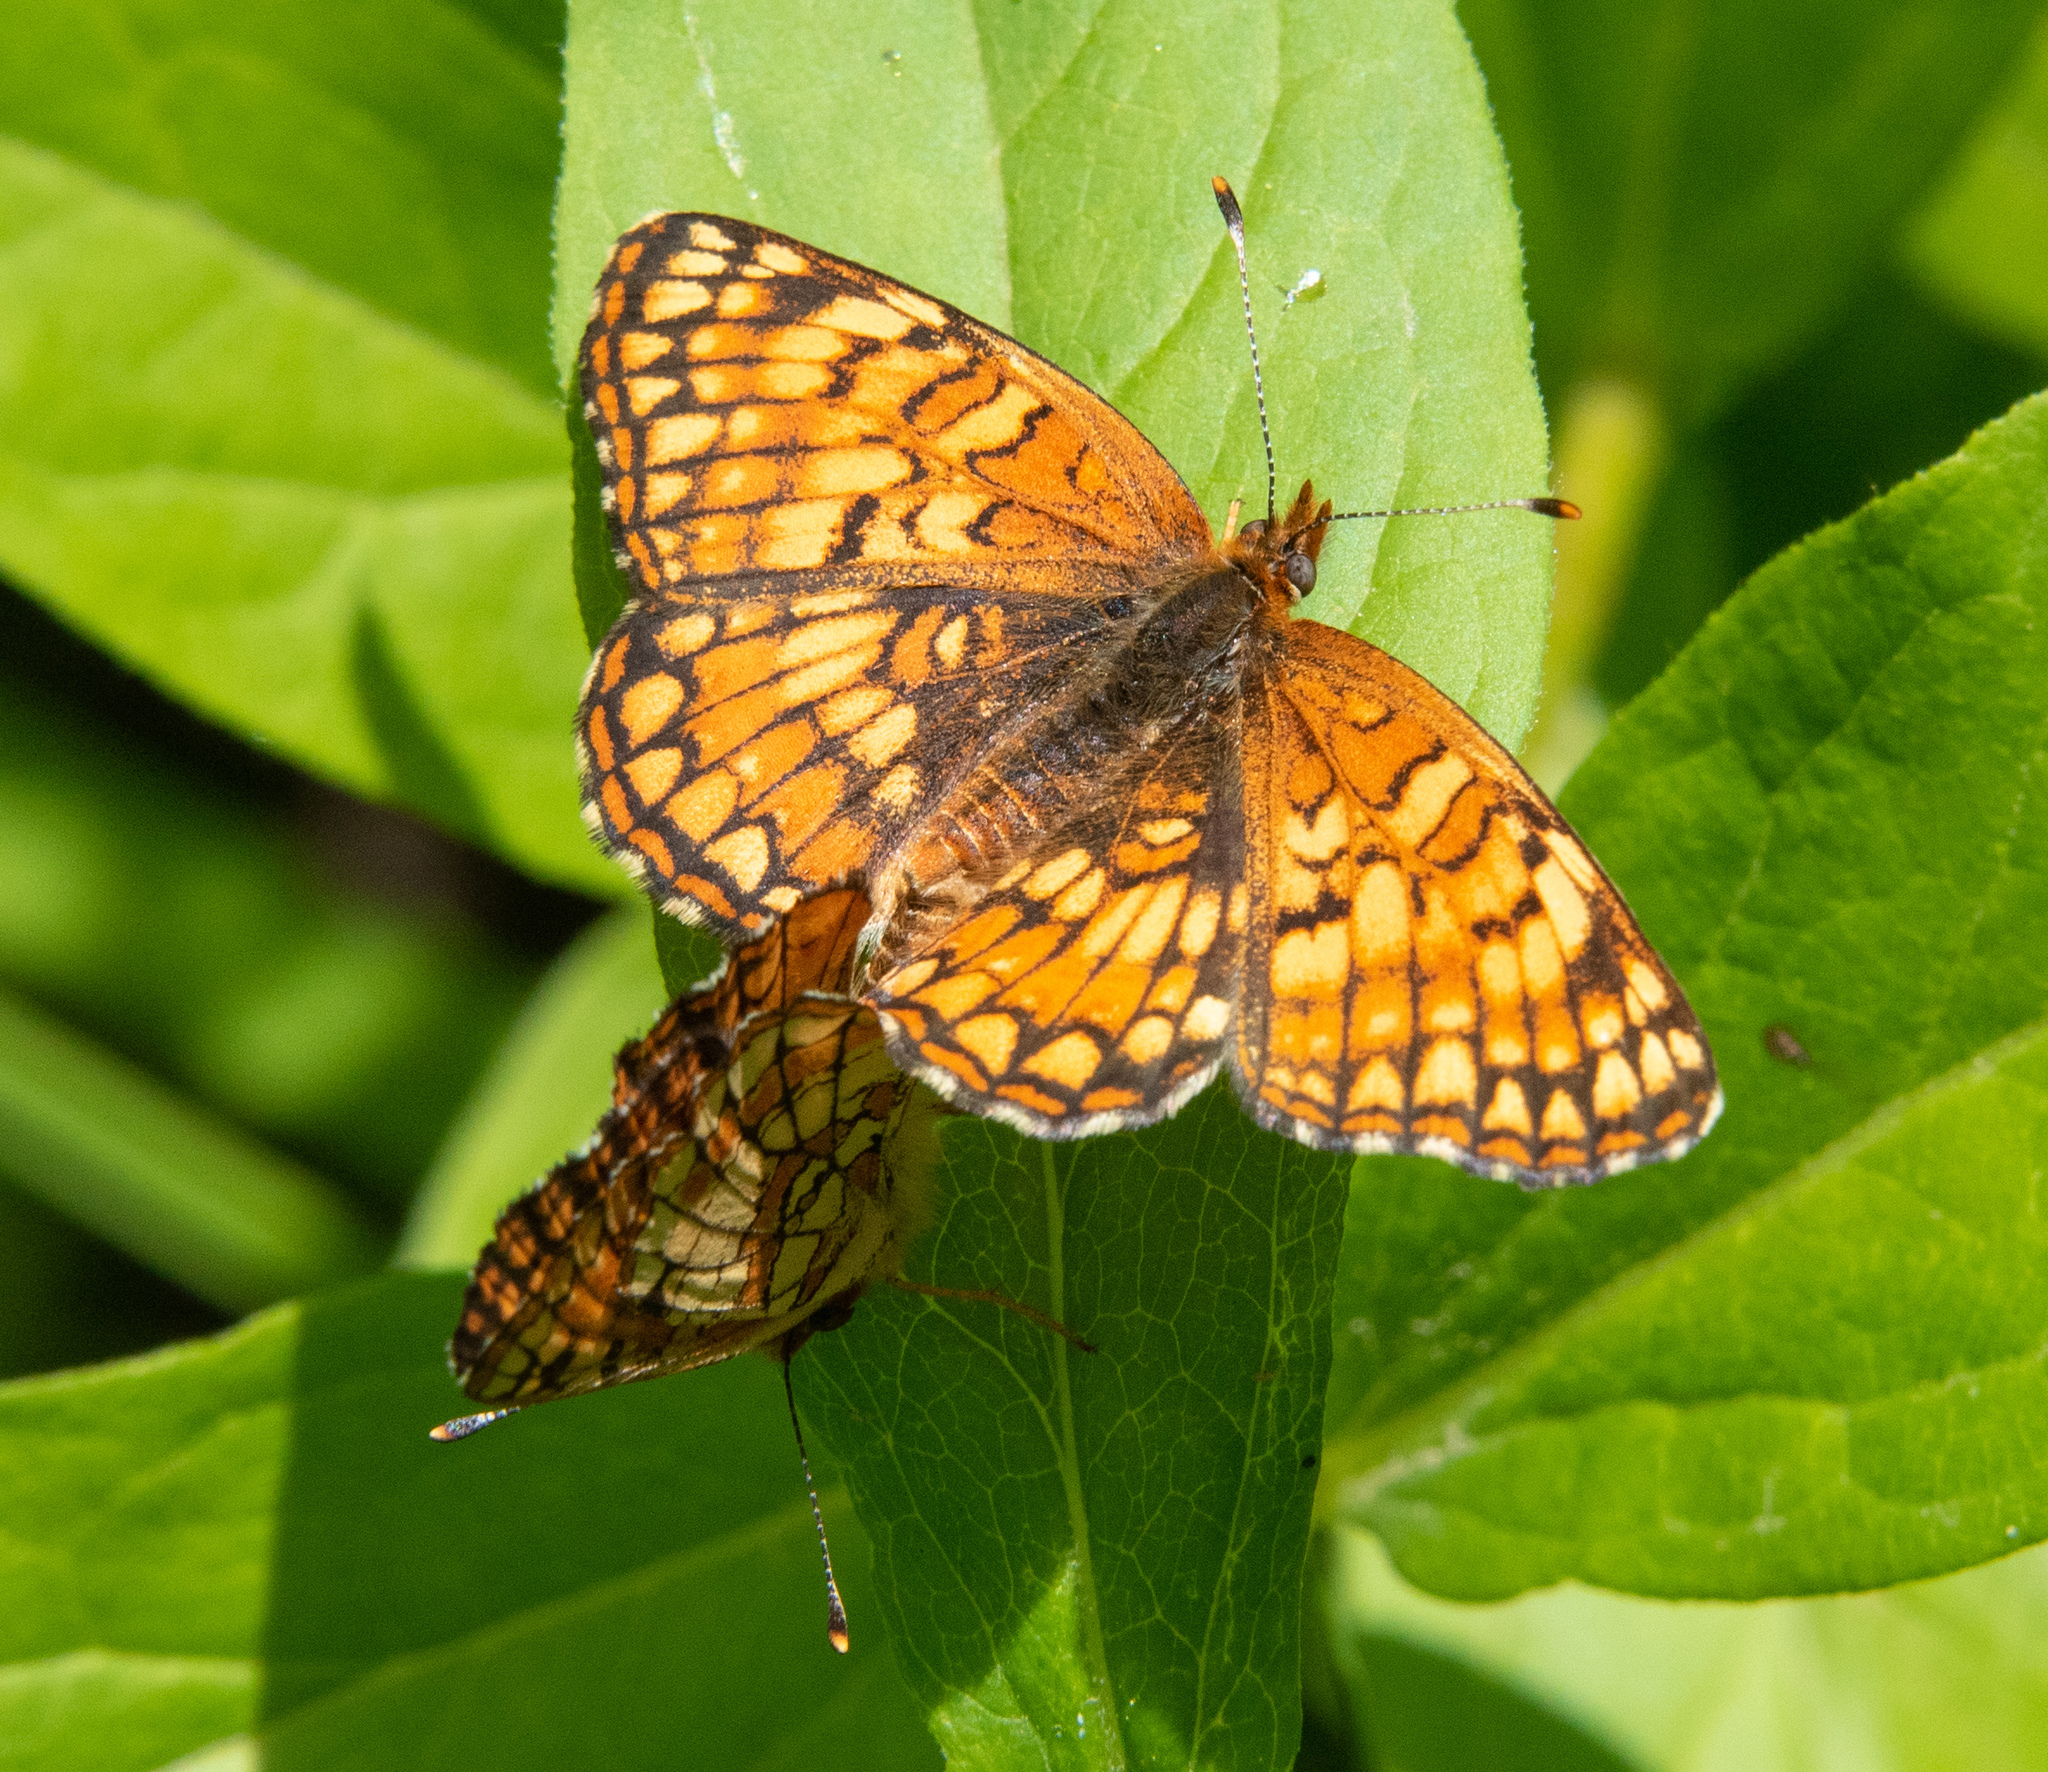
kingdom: Animalia
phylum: Arthropoda
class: Insecta
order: Lepidoptera
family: Nymphalidae
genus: Chlosyne
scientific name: Chlosyne acastus
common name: Sagebrush checkerspot
